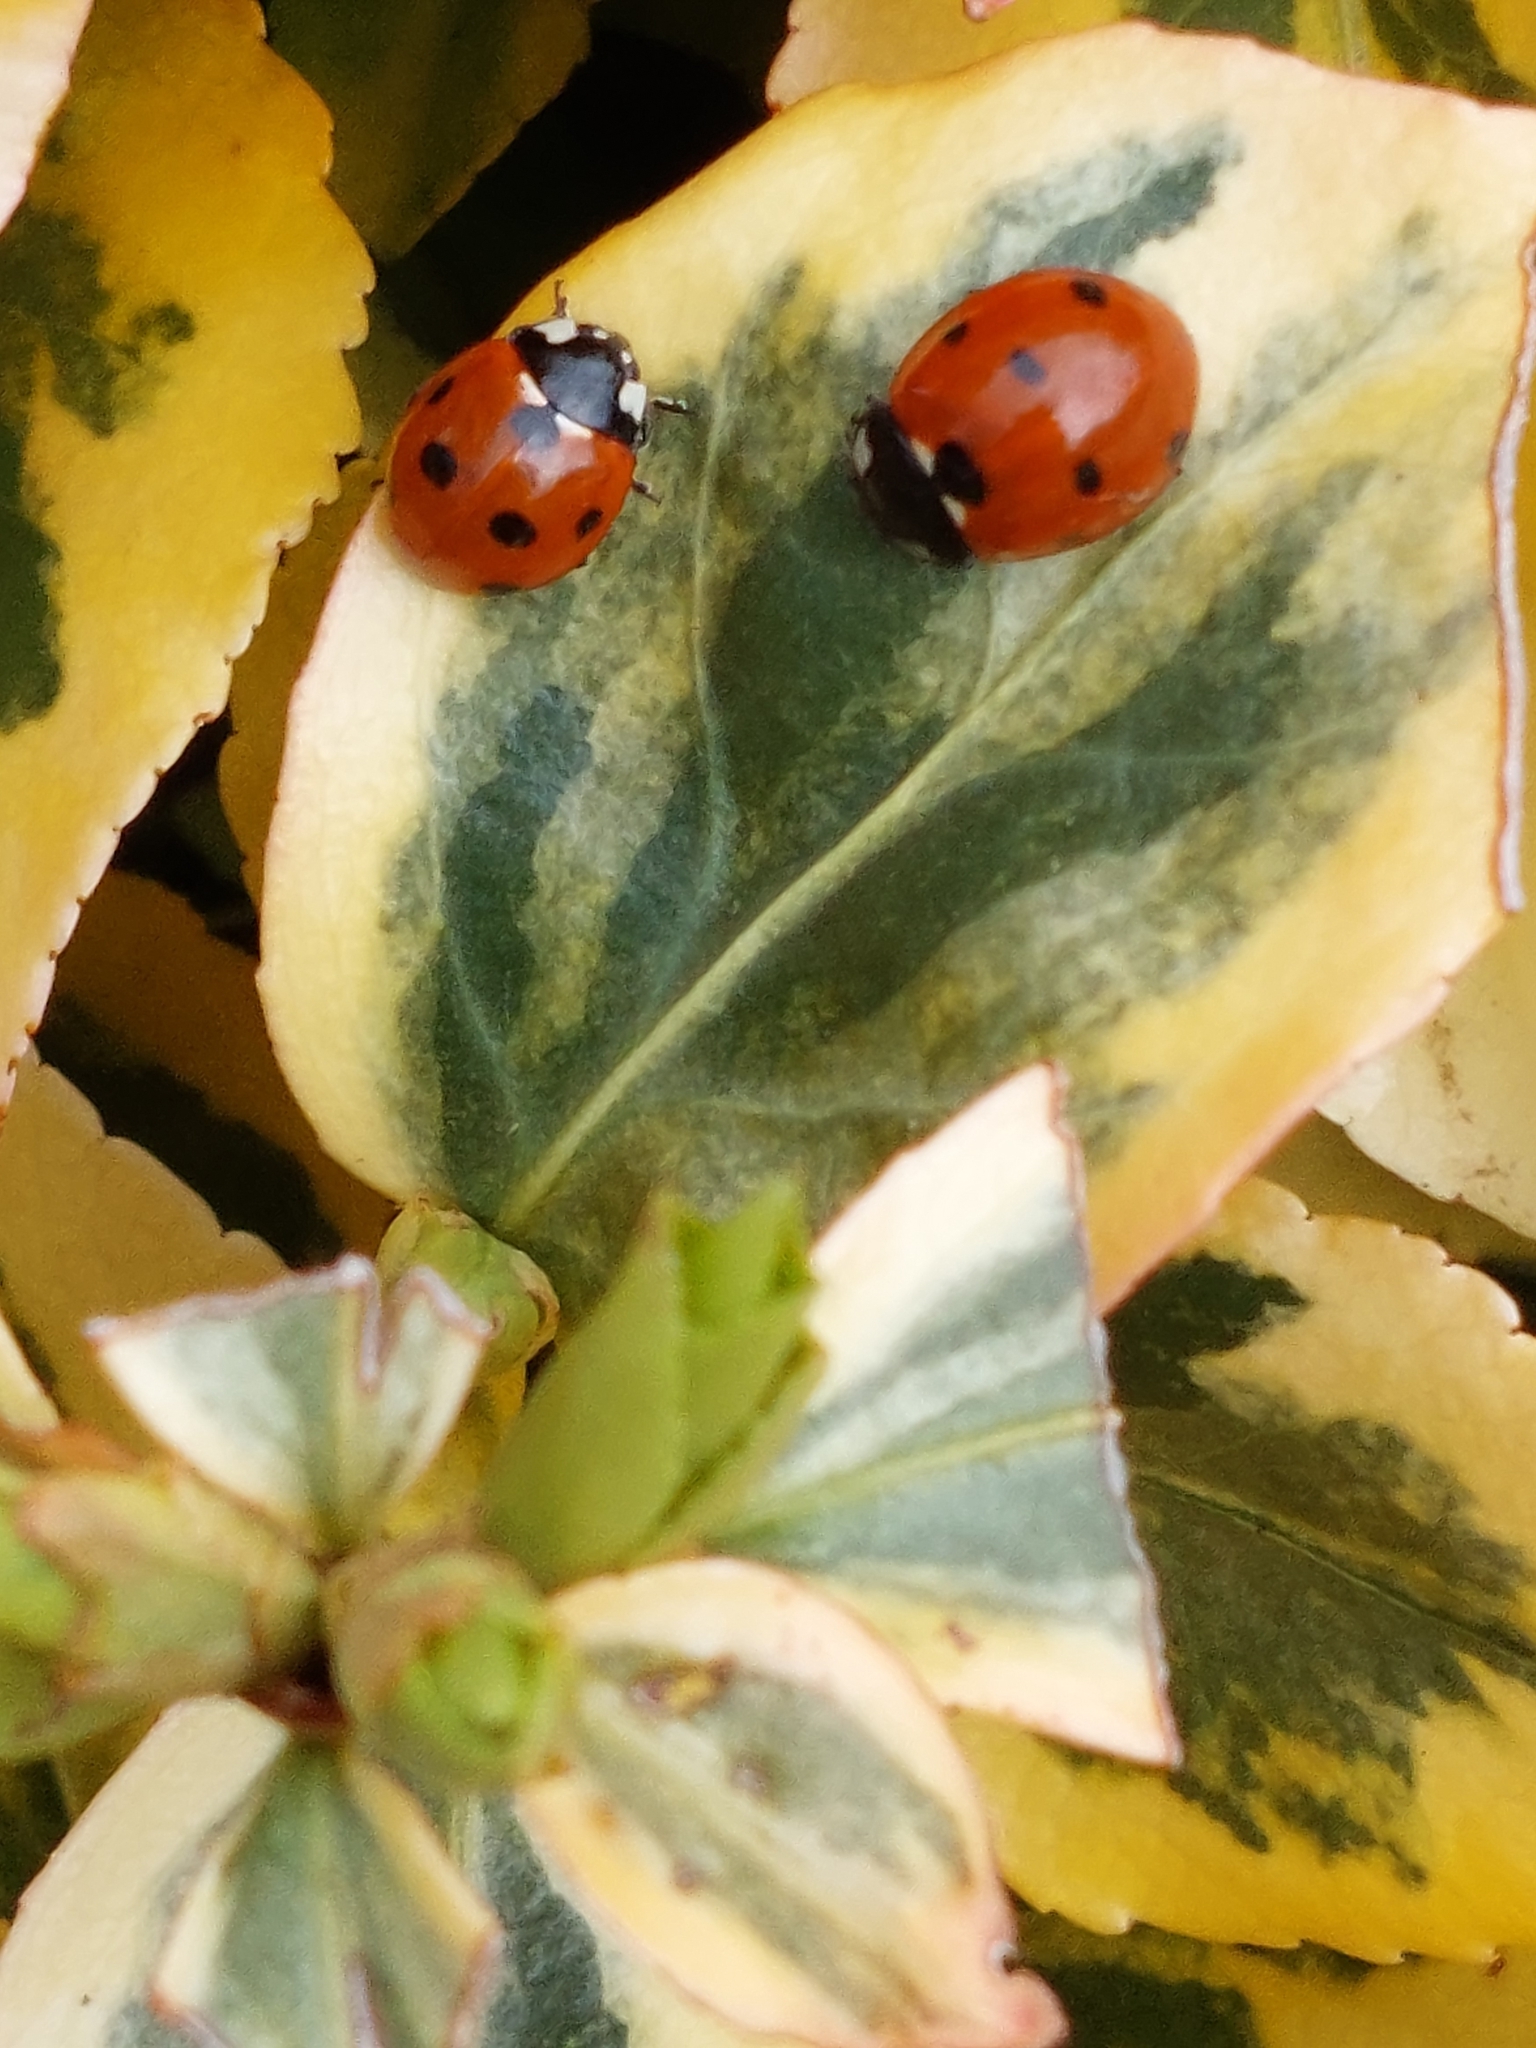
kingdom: Animalia
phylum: Arthropoda
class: Insecta
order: Coleoptera
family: Coccinellidae
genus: Coccinella
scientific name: Coccinella septempunctata
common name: Sevenspotted lady beetle
